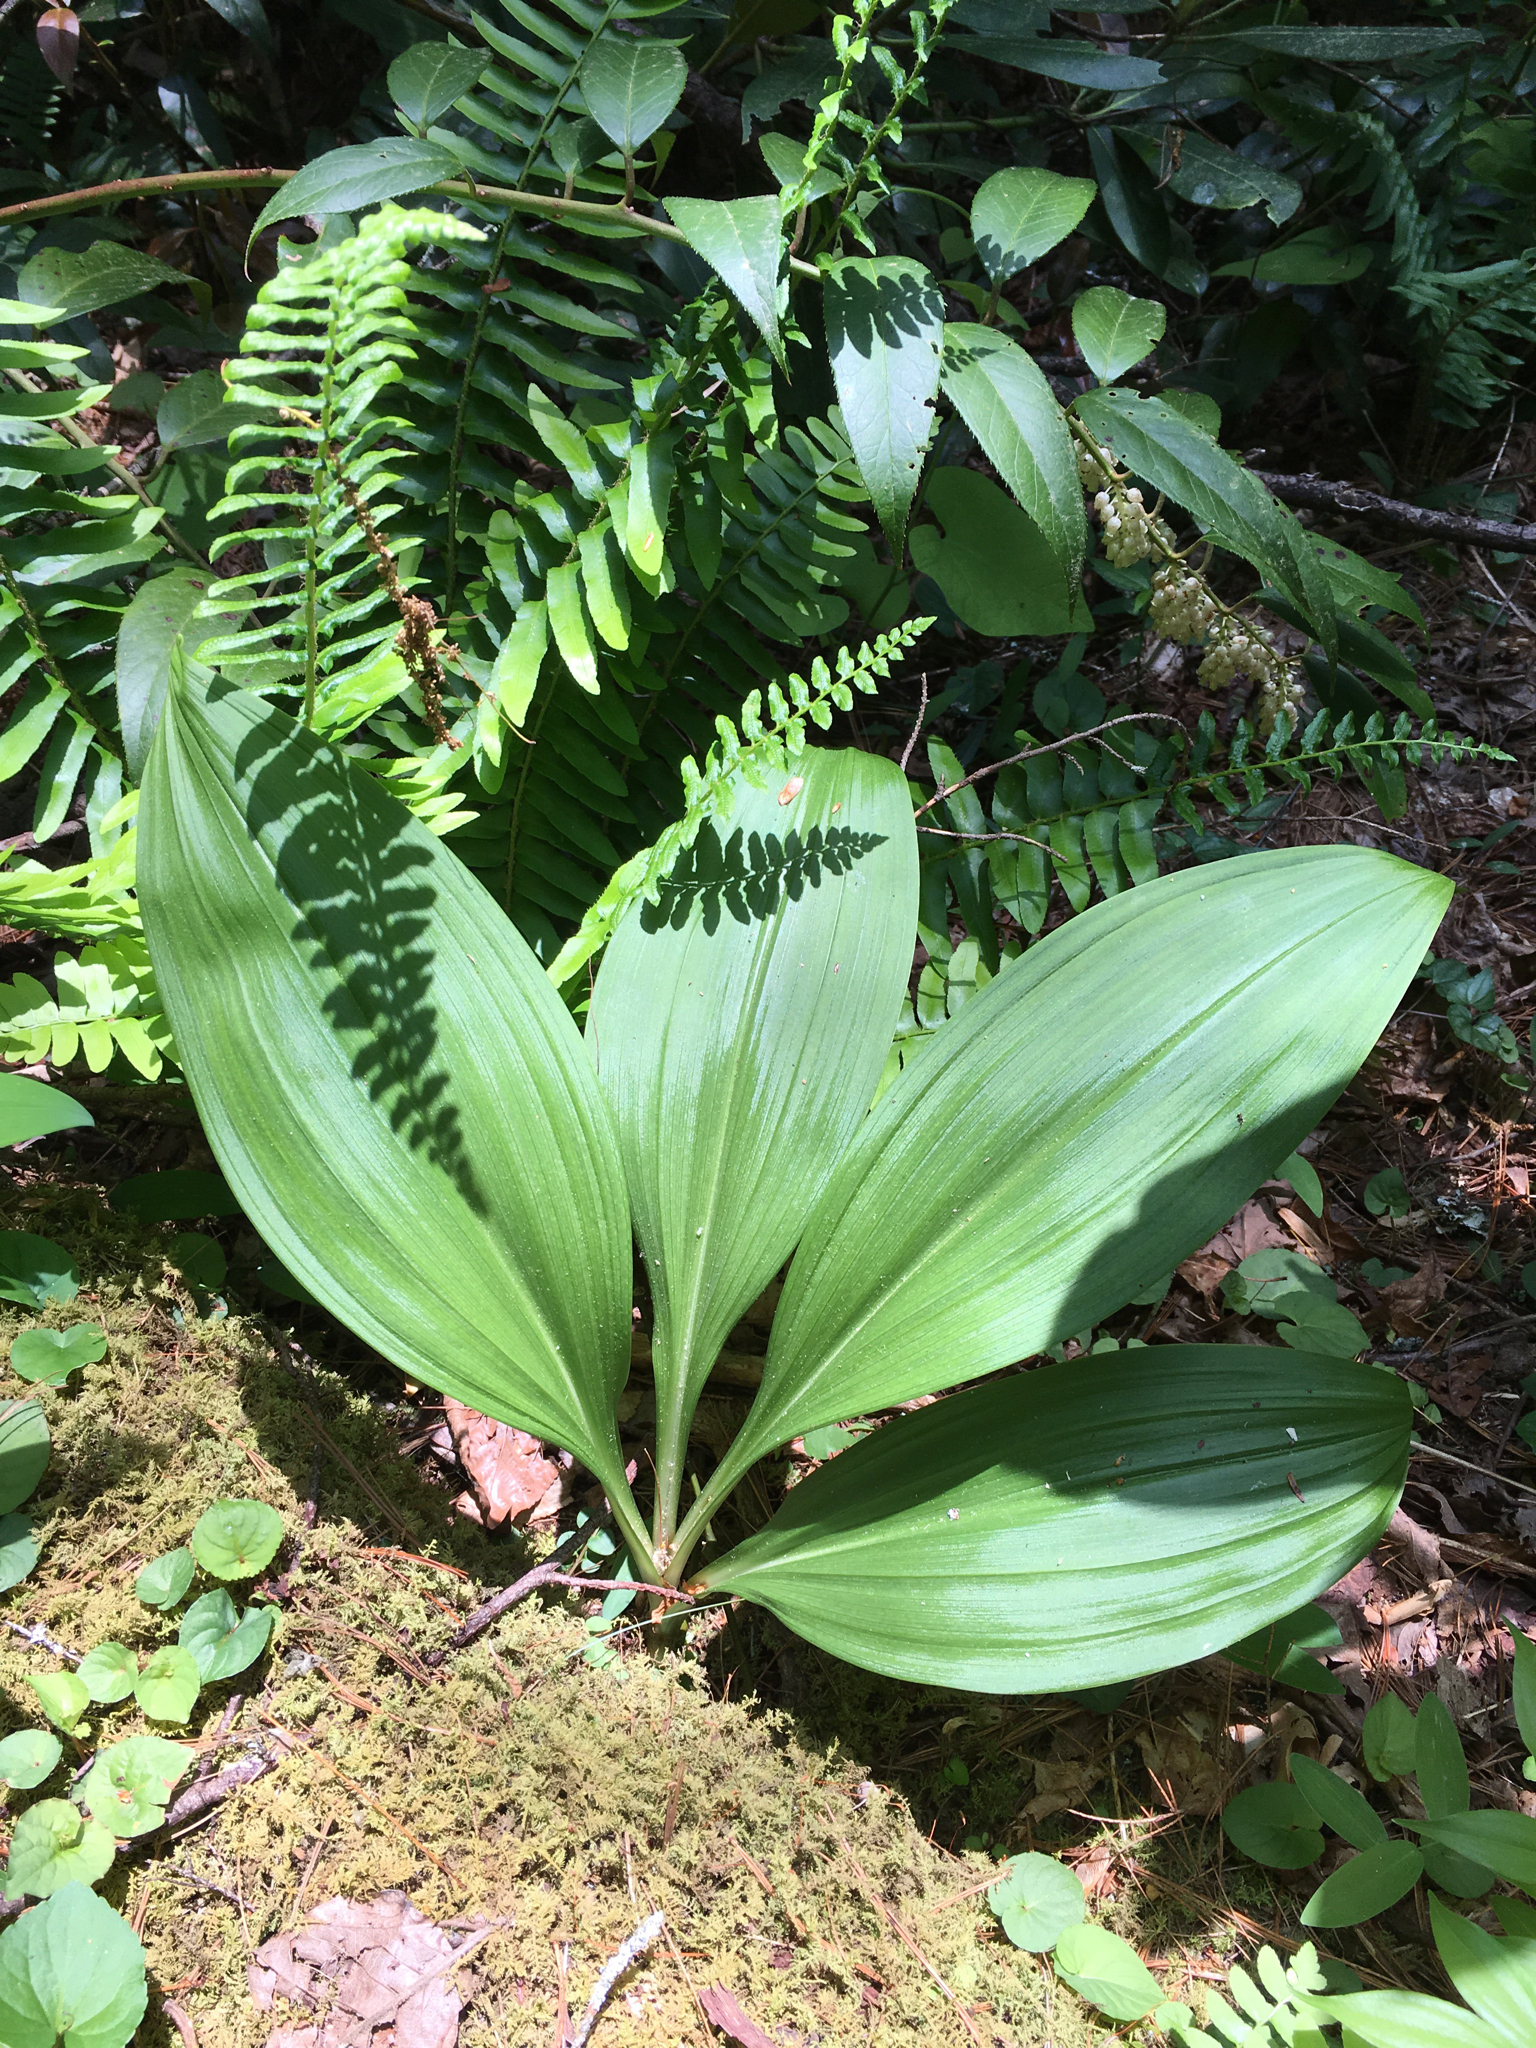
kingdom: Plantae
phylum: Tracheophyta
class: Liliopsida
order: Liliales
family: Melanthiaceae
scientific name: Melanthiaceae
